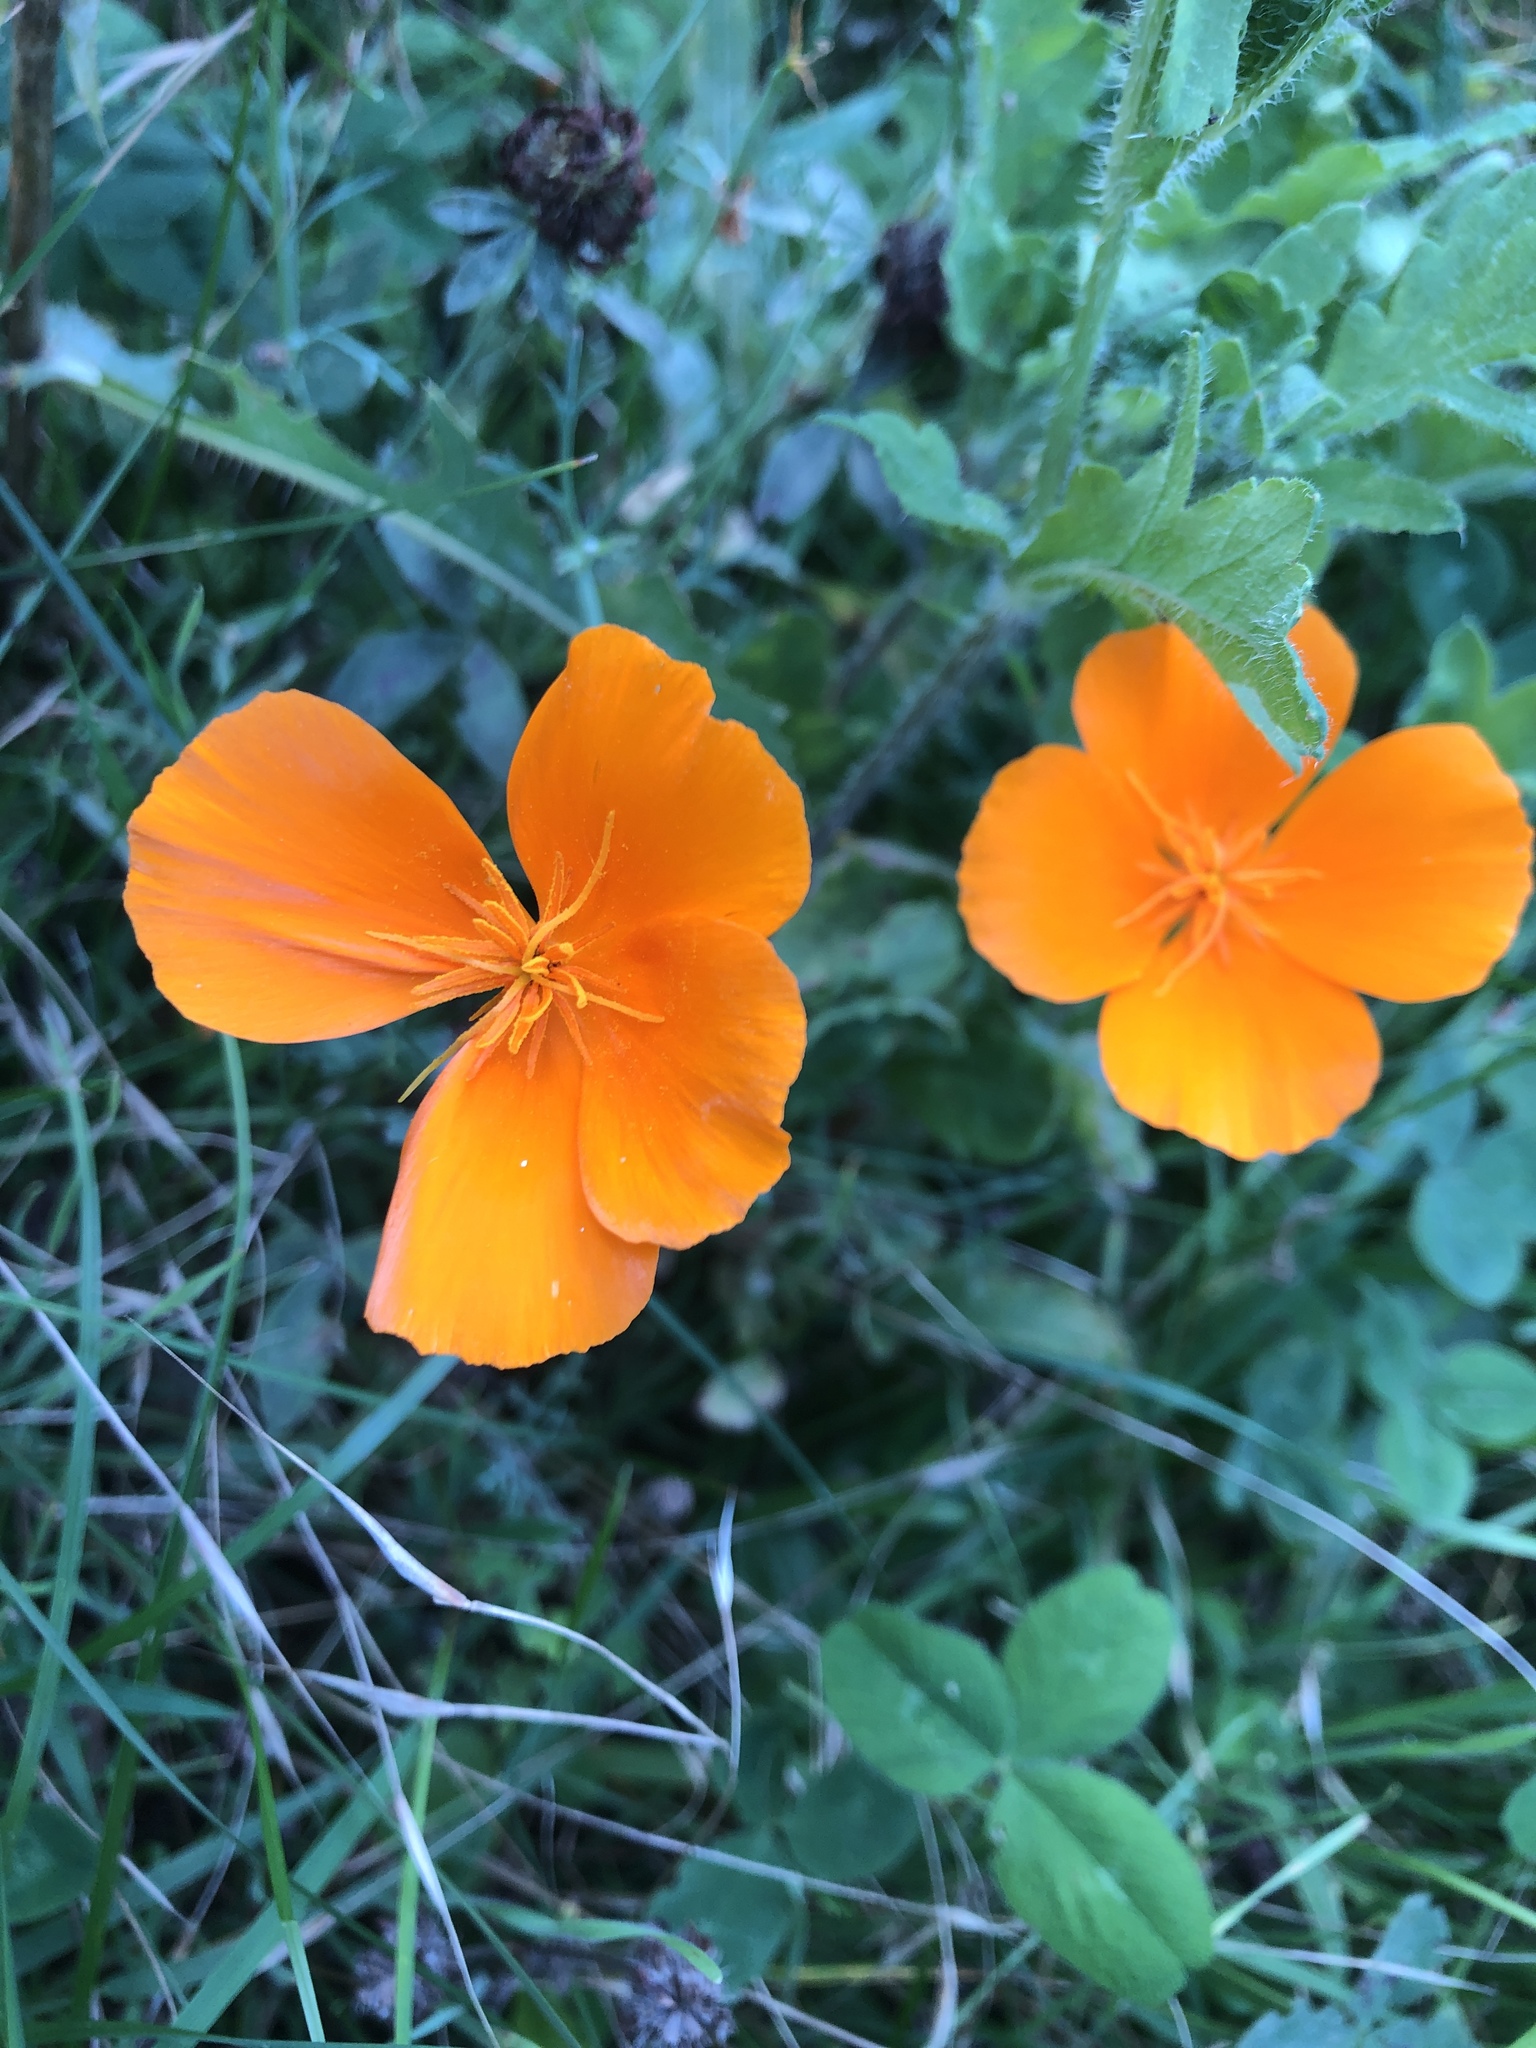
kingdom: Plantae
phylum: Tracheophyta
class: Magnoliopsida
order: Ranunculales
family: Papaveraceae
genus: Eschscholzia
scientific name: Eschscholzia californica
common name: California poppy
